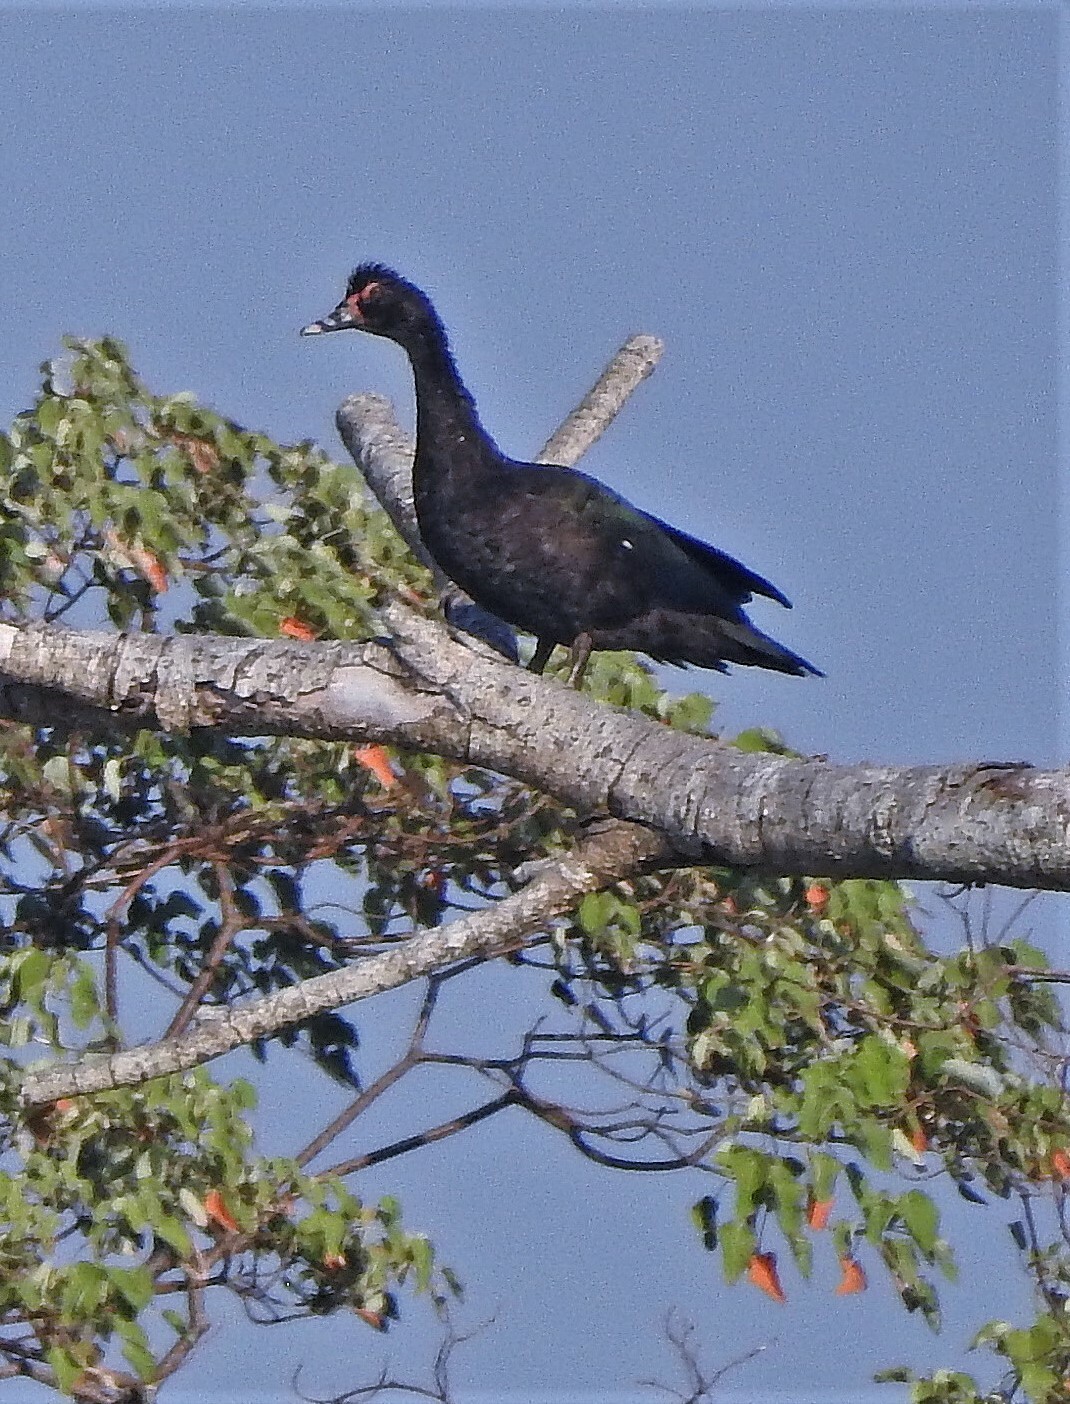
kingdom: Animalia
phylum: Chordata
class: Aves
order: Anseriformes
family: Anatidae
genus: Cairina
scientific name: Cairina moschata
